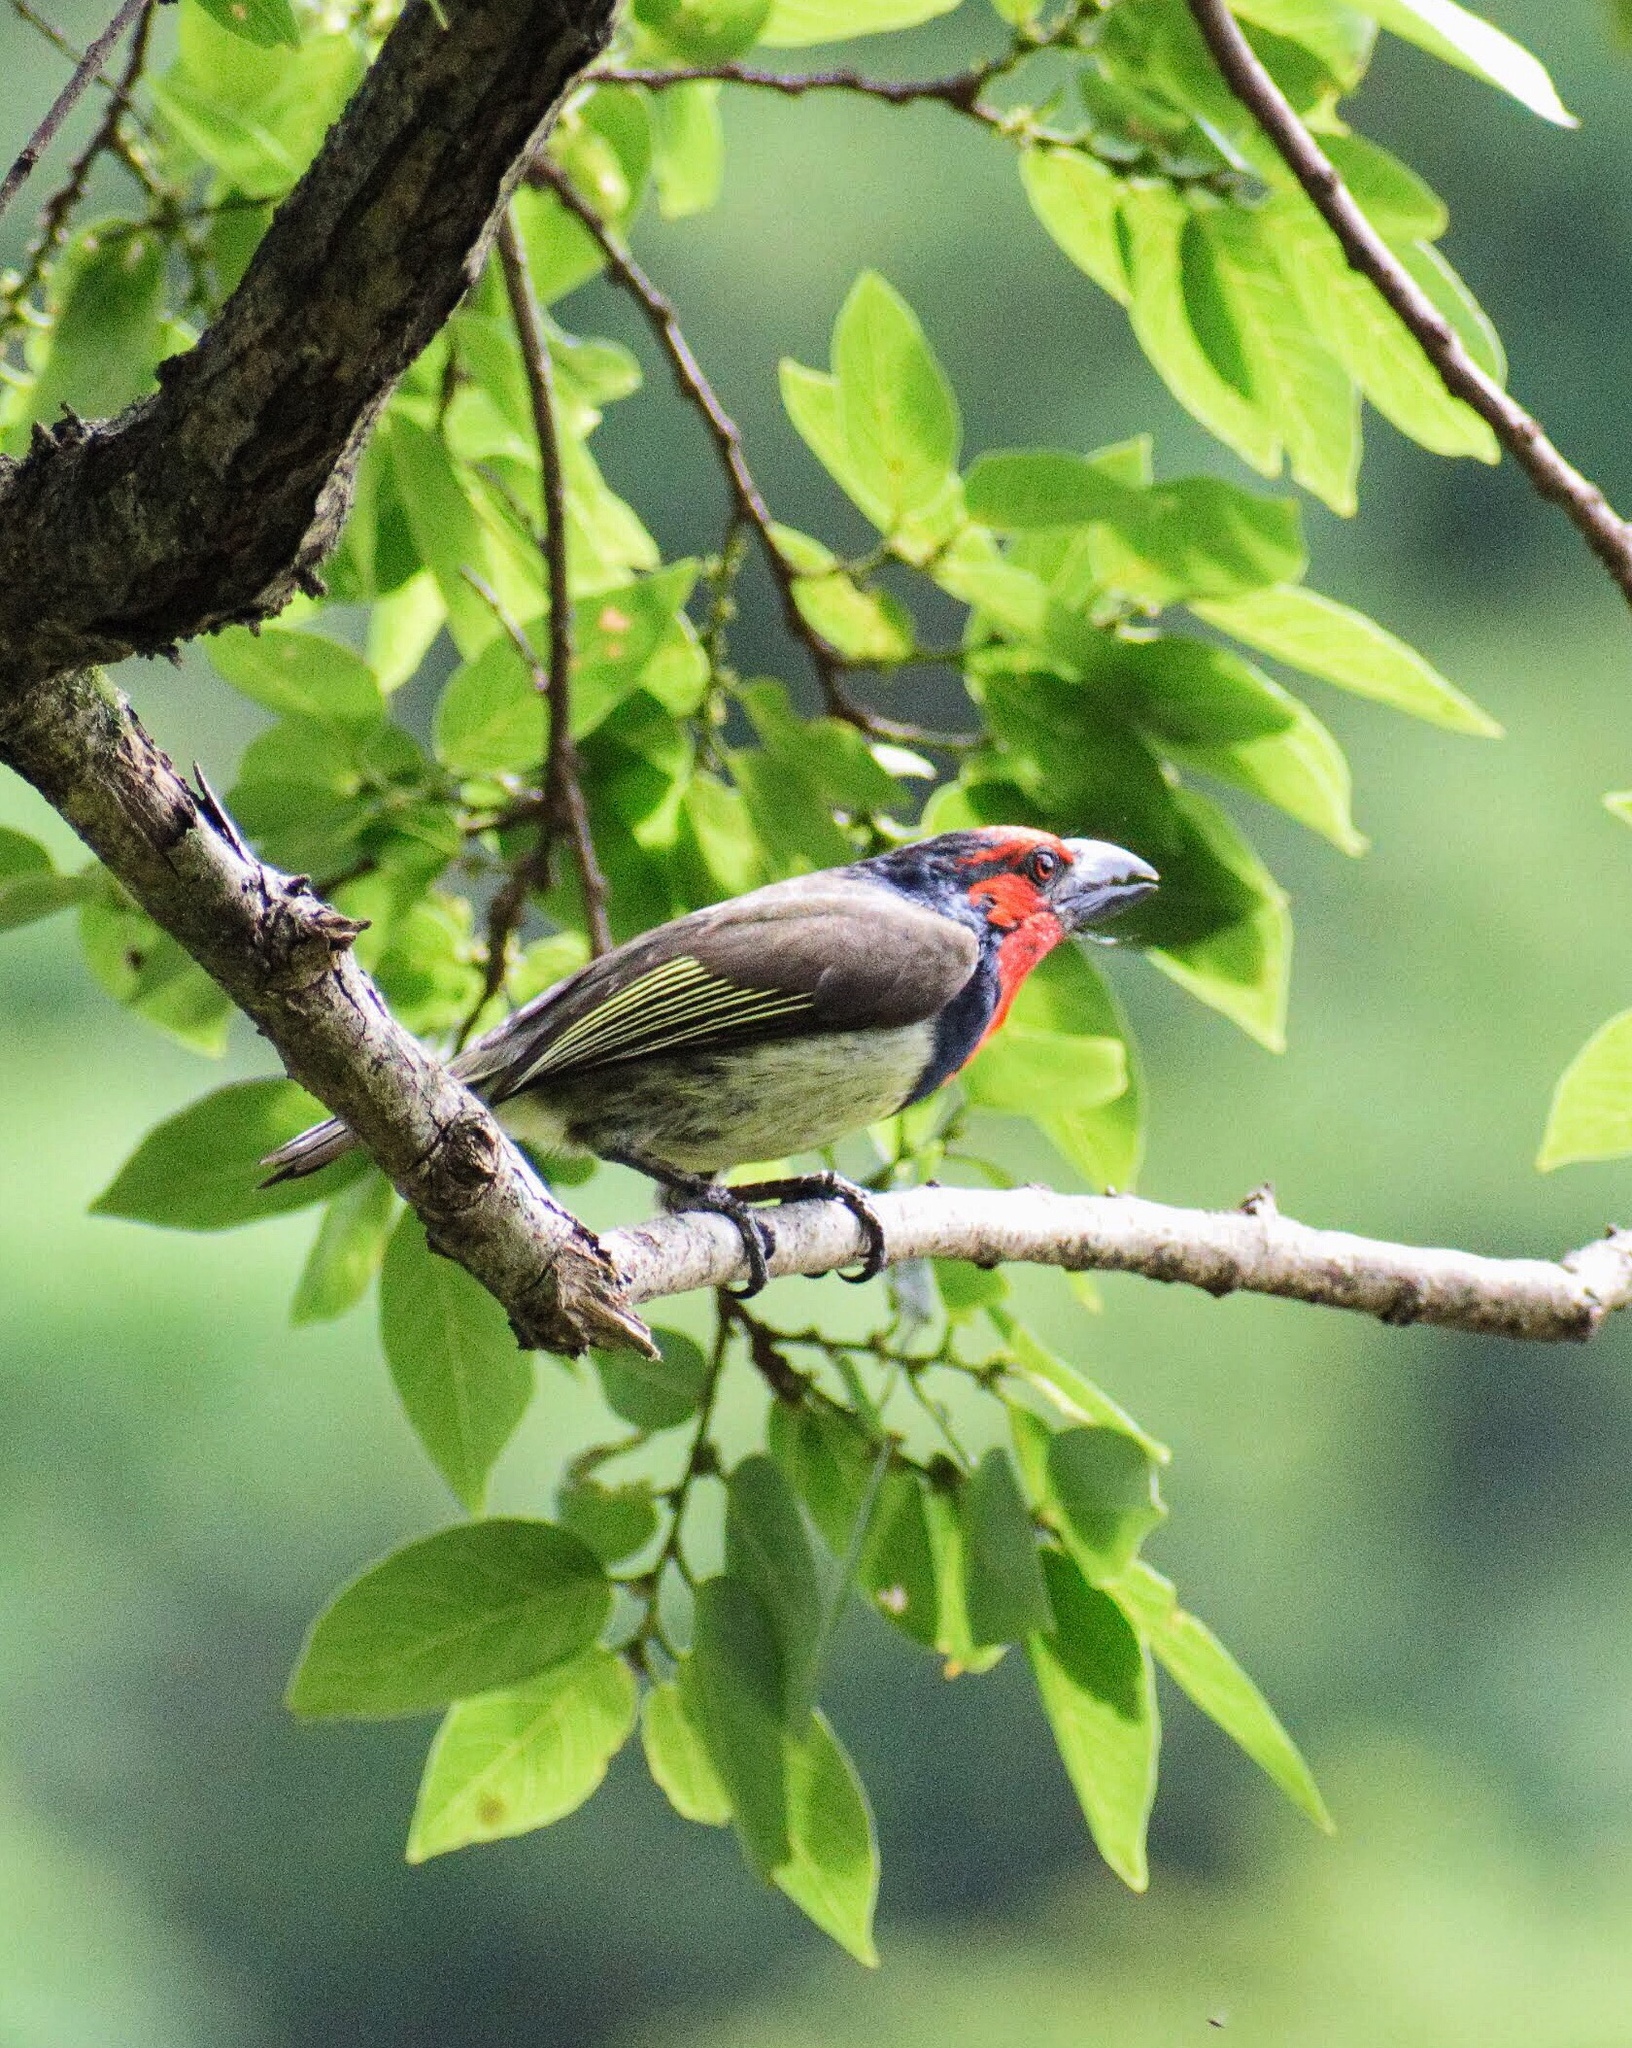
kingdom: Animalia
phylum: Chordata
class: Aves
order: Piciformes
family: Lybiidae
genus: Lybius
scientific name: Lybius torquatus
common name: Black-collared barbet
